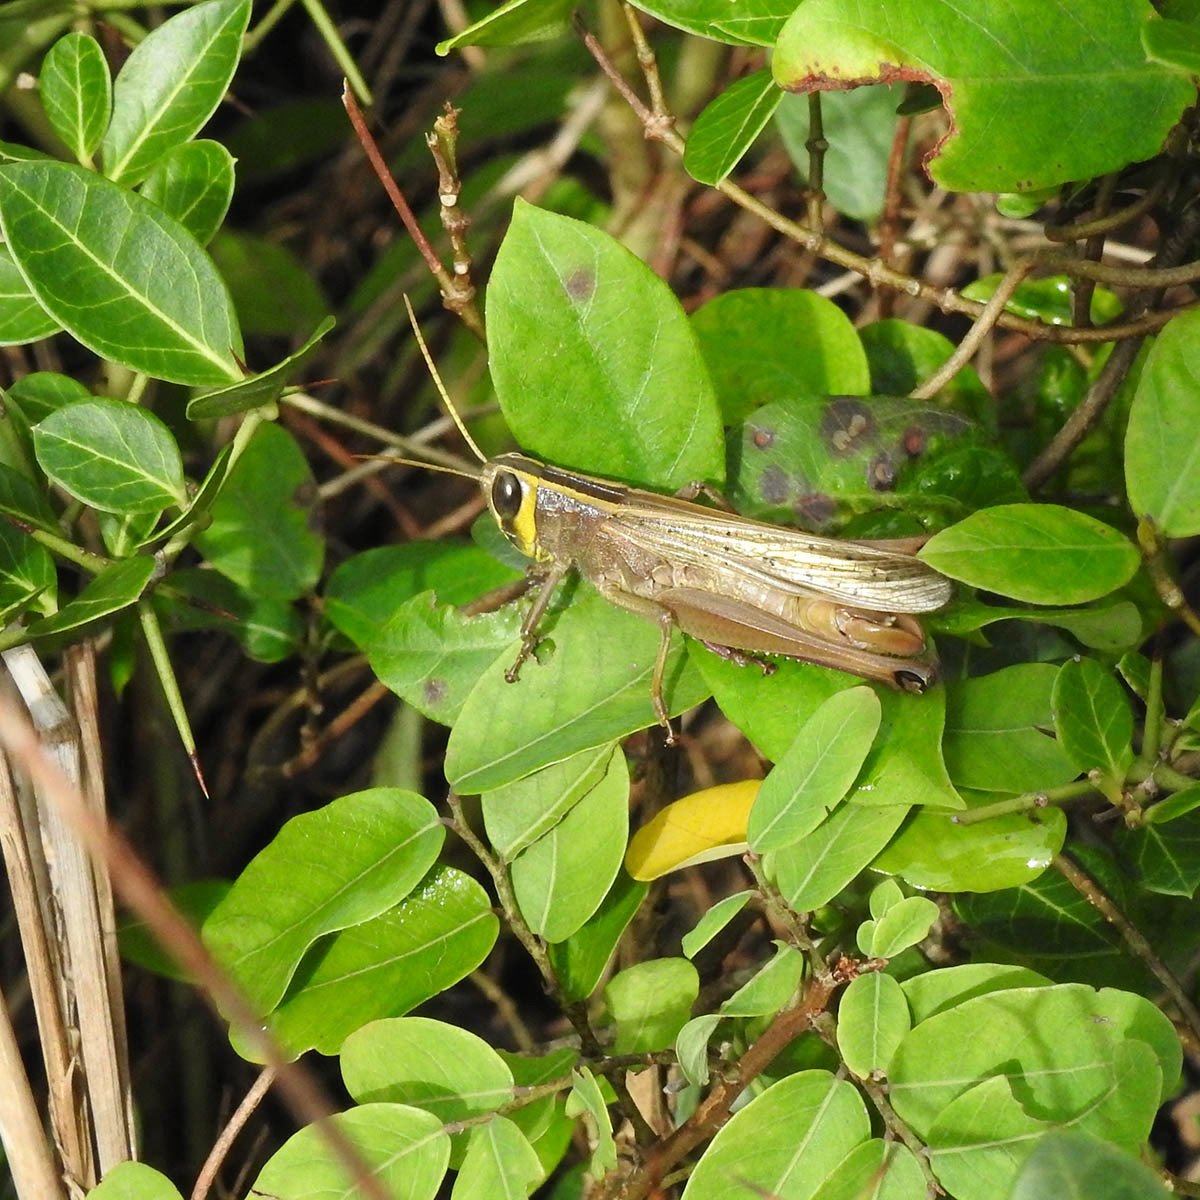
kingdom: Animalia
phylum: Arthropoda
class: Insecta
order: Orthoptera
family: Acrididae
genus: Choroedocus
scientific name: Choroedocus illustris
